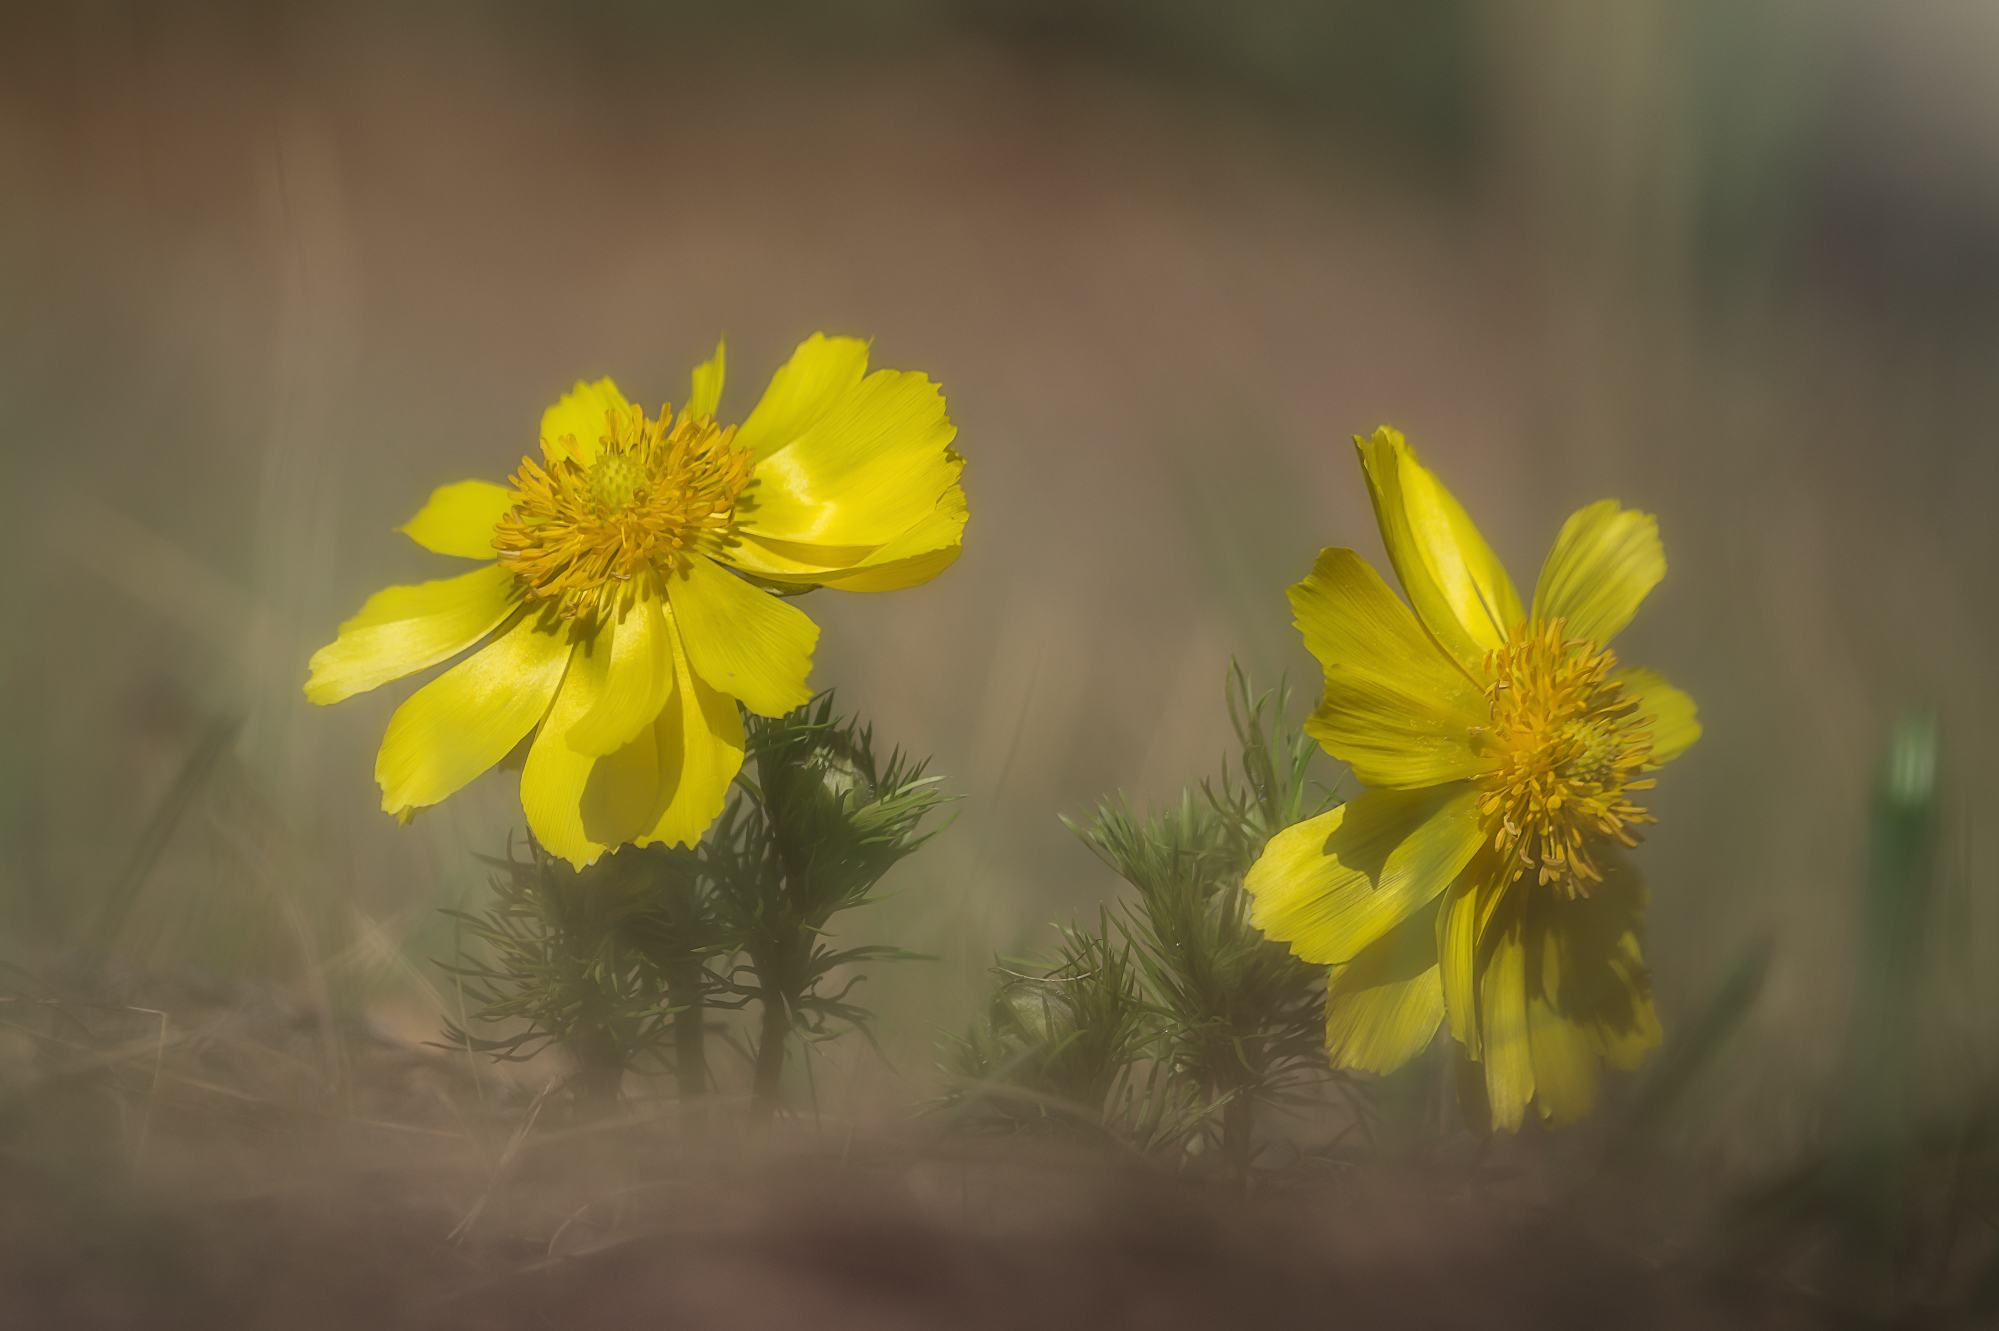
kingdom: Plantae
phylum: Tracheophyta
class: Magnoliopsida
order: Ranunculales
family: Ranunculaceae
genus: Adonis
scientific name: Adonis vernalis
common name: Yellow pheasants-eye
